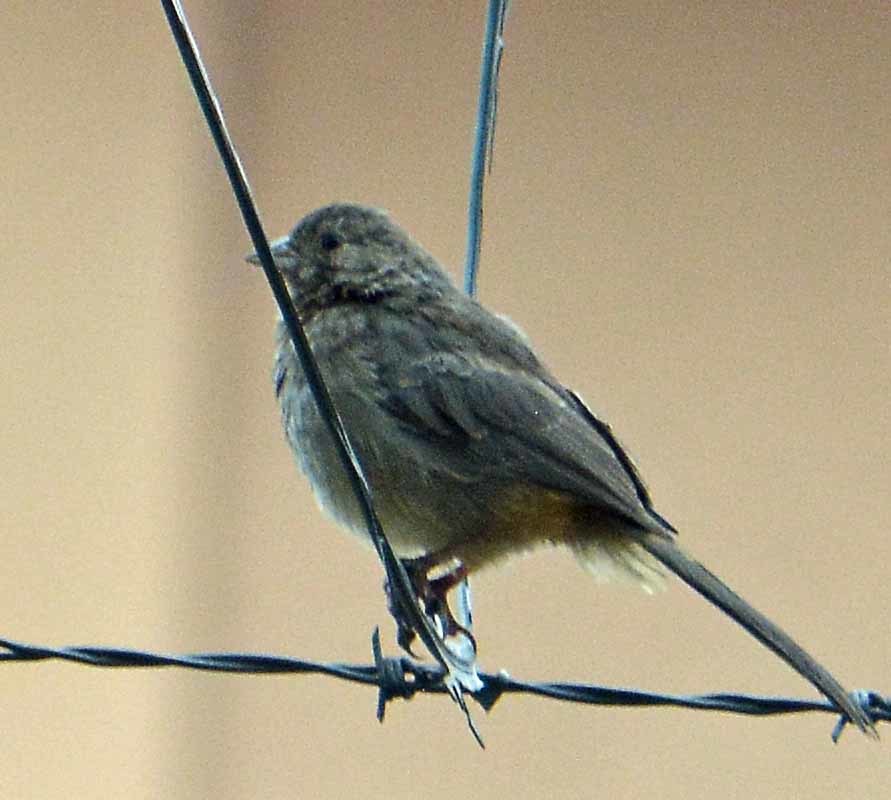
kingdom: Animalia
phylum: Chordata
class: Aves
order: Passeriformes
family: Passerellidae
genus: Melozone
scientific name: Melozone fusca
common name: Canyon towhee
